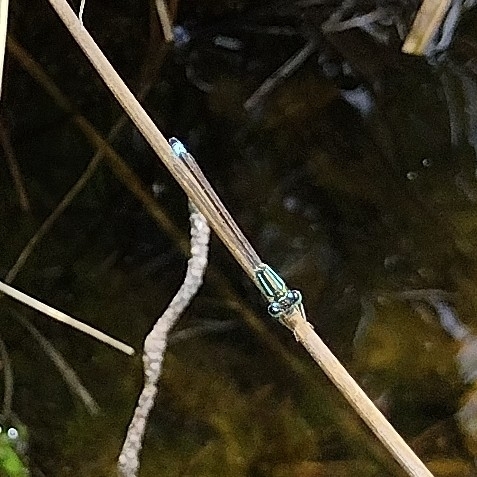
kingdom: Animalia
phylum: Arthropoda
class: Insecta
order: Odonata
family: Coenagrionidae
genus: Ischnura
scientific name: Ischnura elegans
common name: Blue-tailed damselfly
